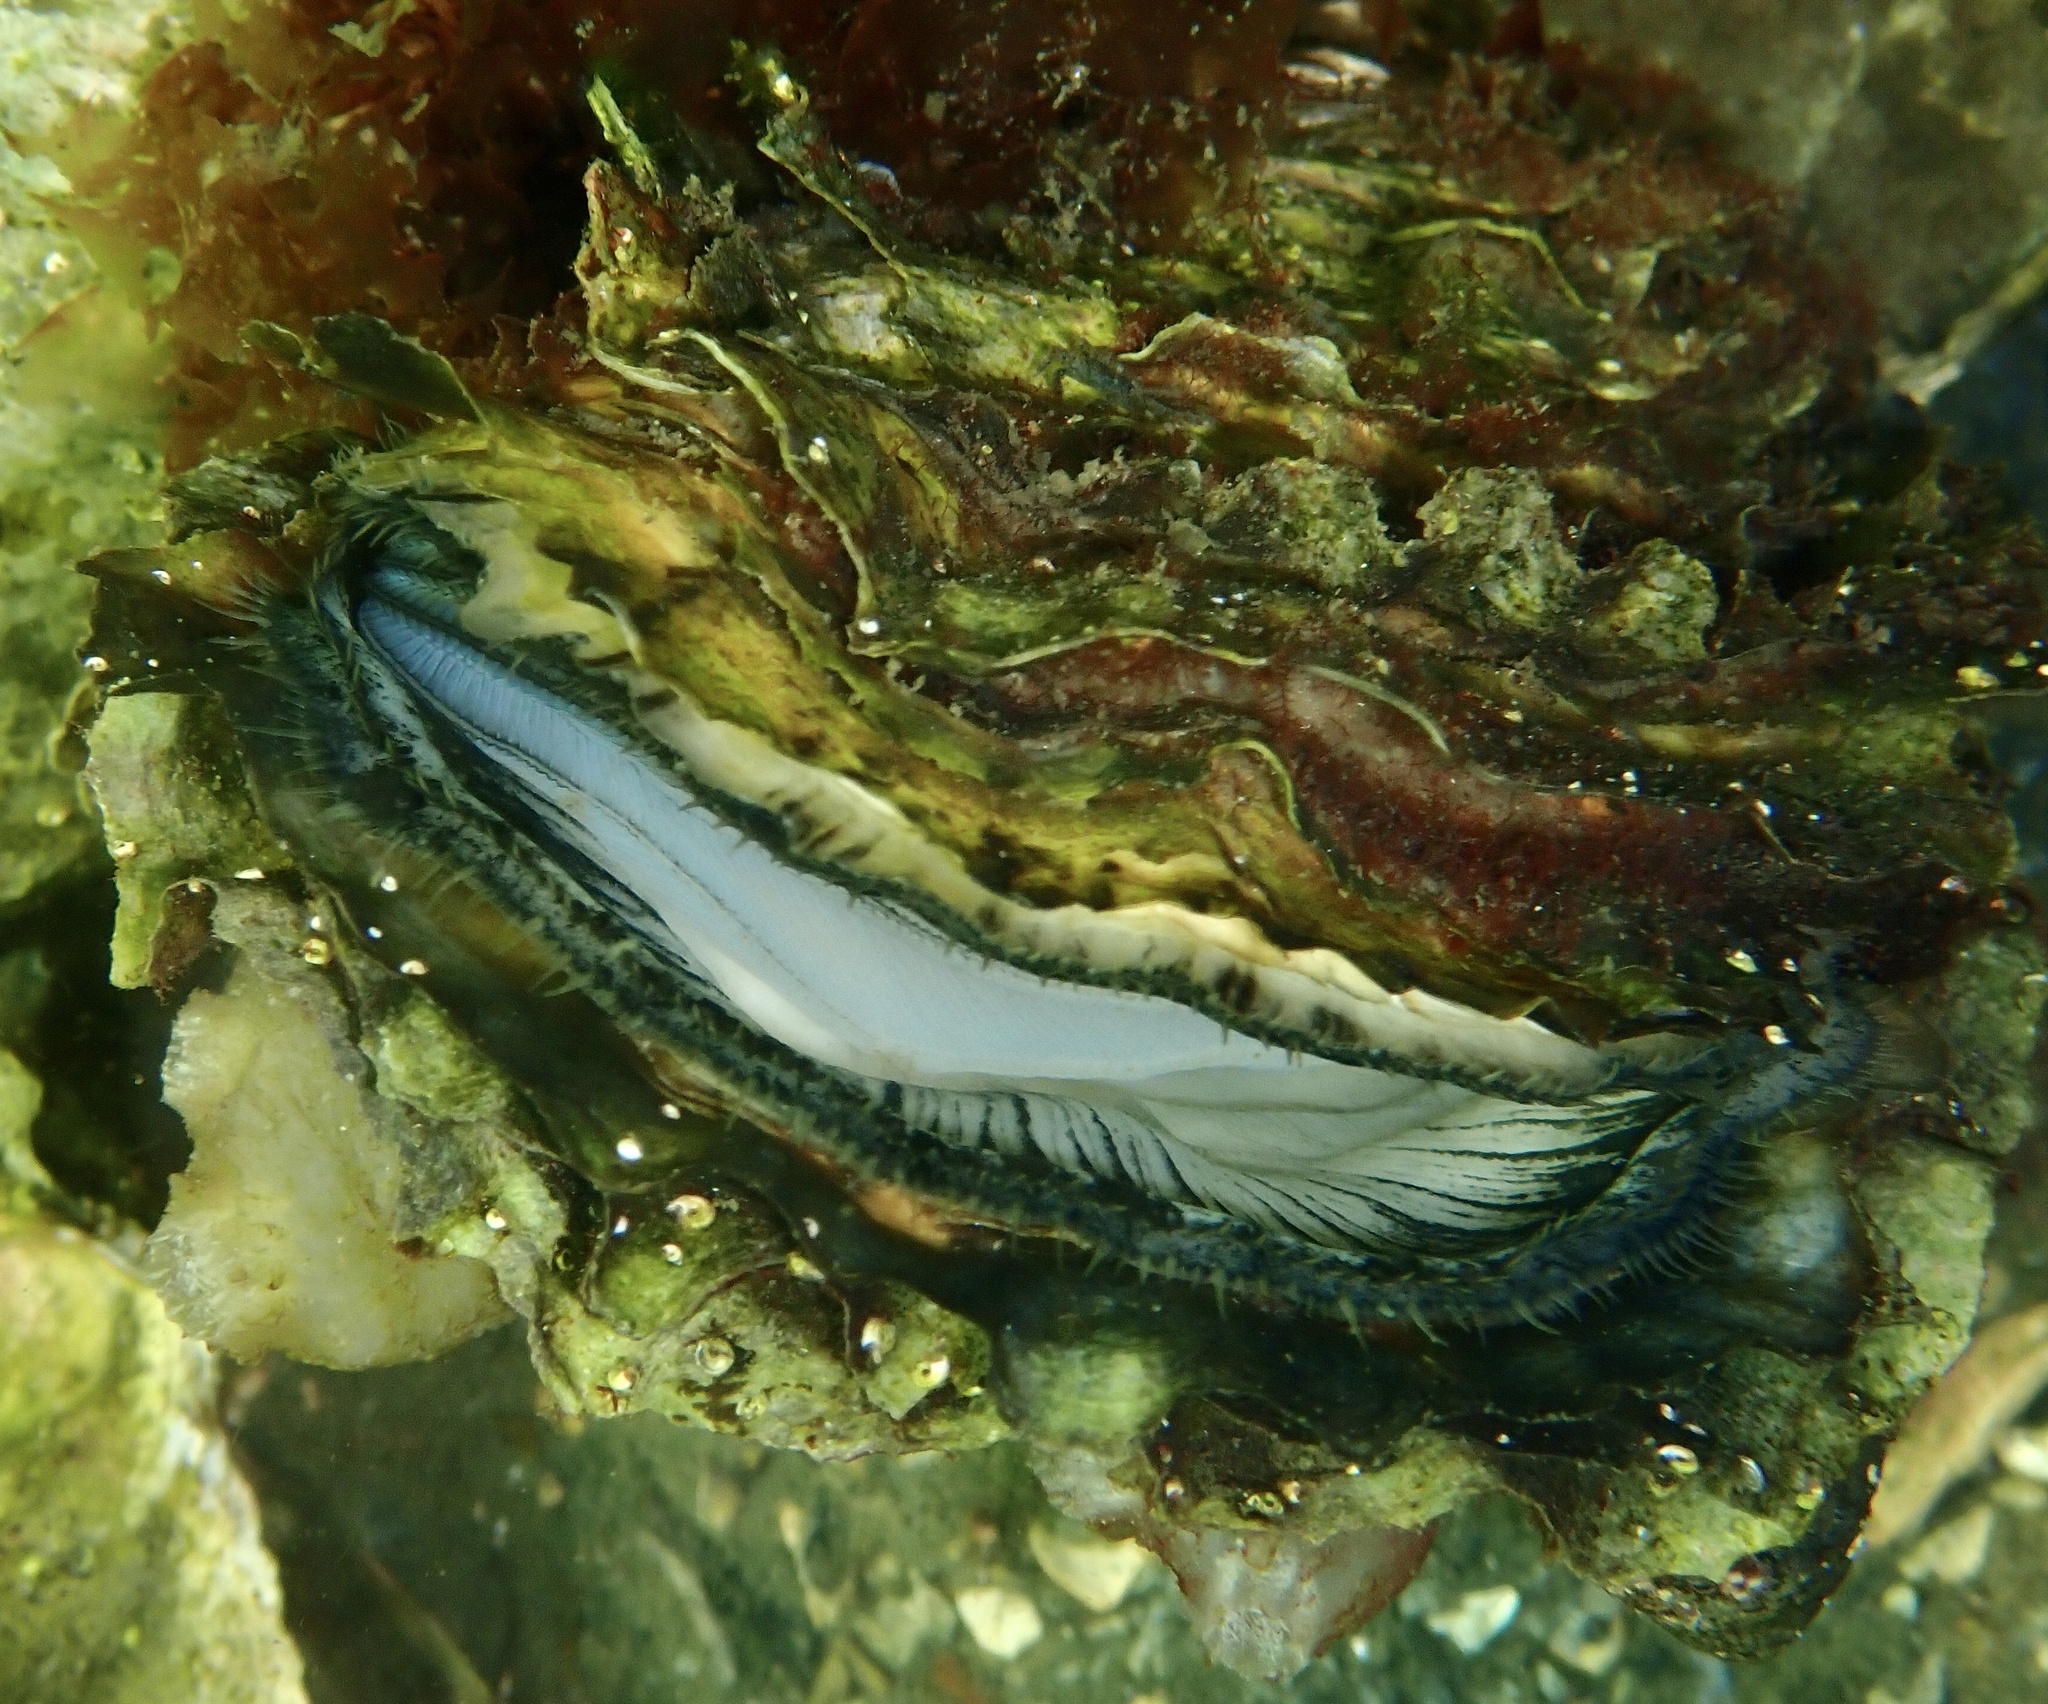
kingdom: Animalia
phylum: Mollusca
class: Bivalvia
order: Ostreida
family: Ostreidae
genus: Magallana
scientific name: Magallana gigas
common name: Pacific oyster
